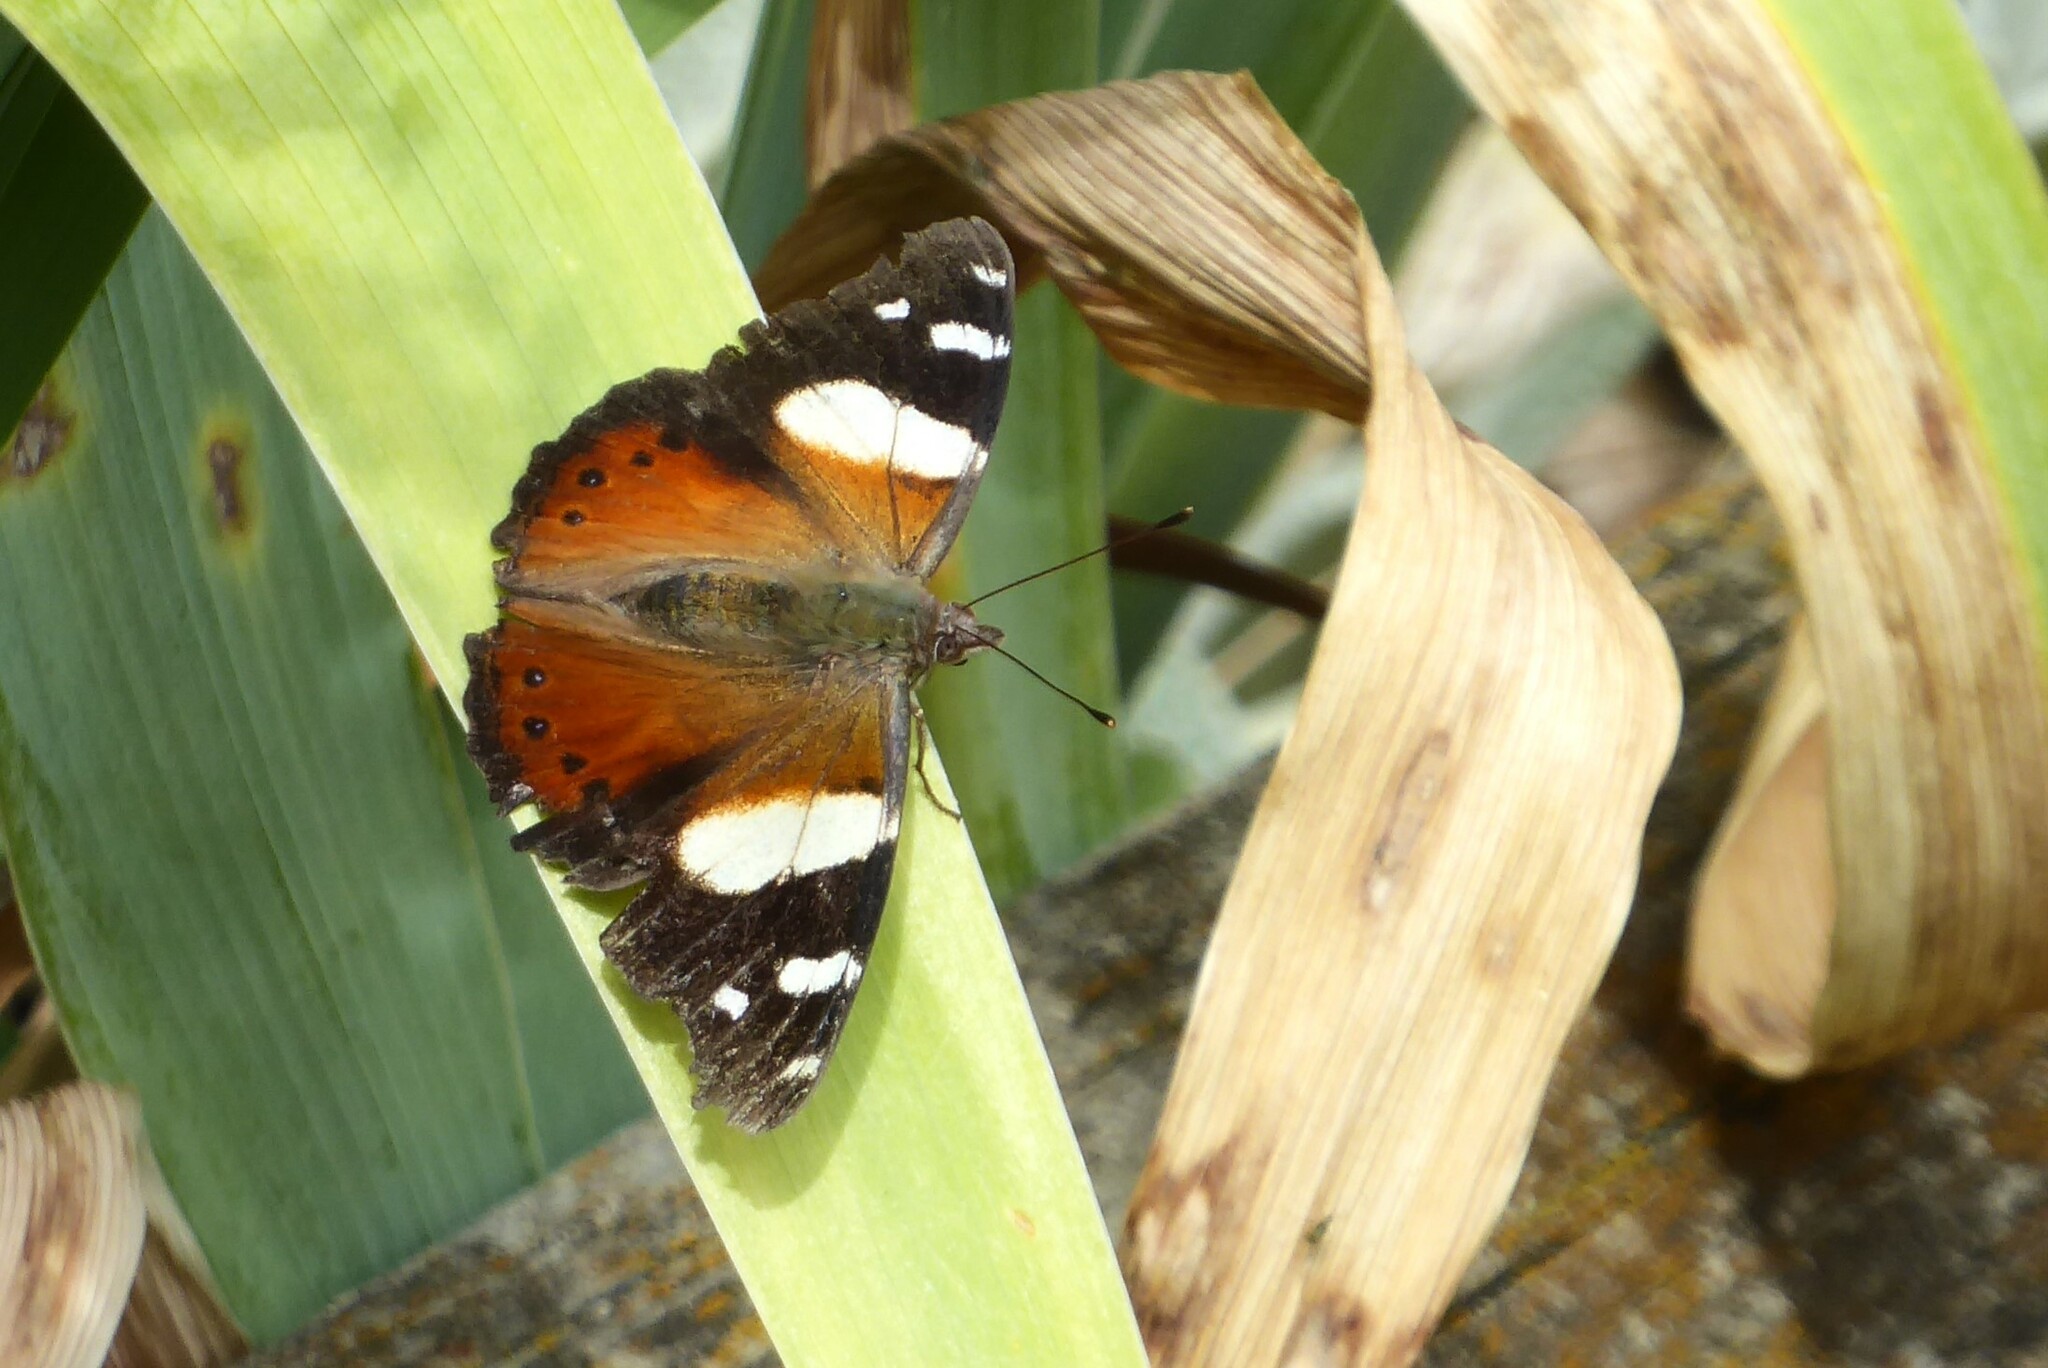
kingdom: Animalia
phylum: Arthropoda
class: Insecta
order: Lepidoptera
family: Nymphalidae
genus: Vanessa
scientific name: Vanessa itea
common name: Yellow admiral
